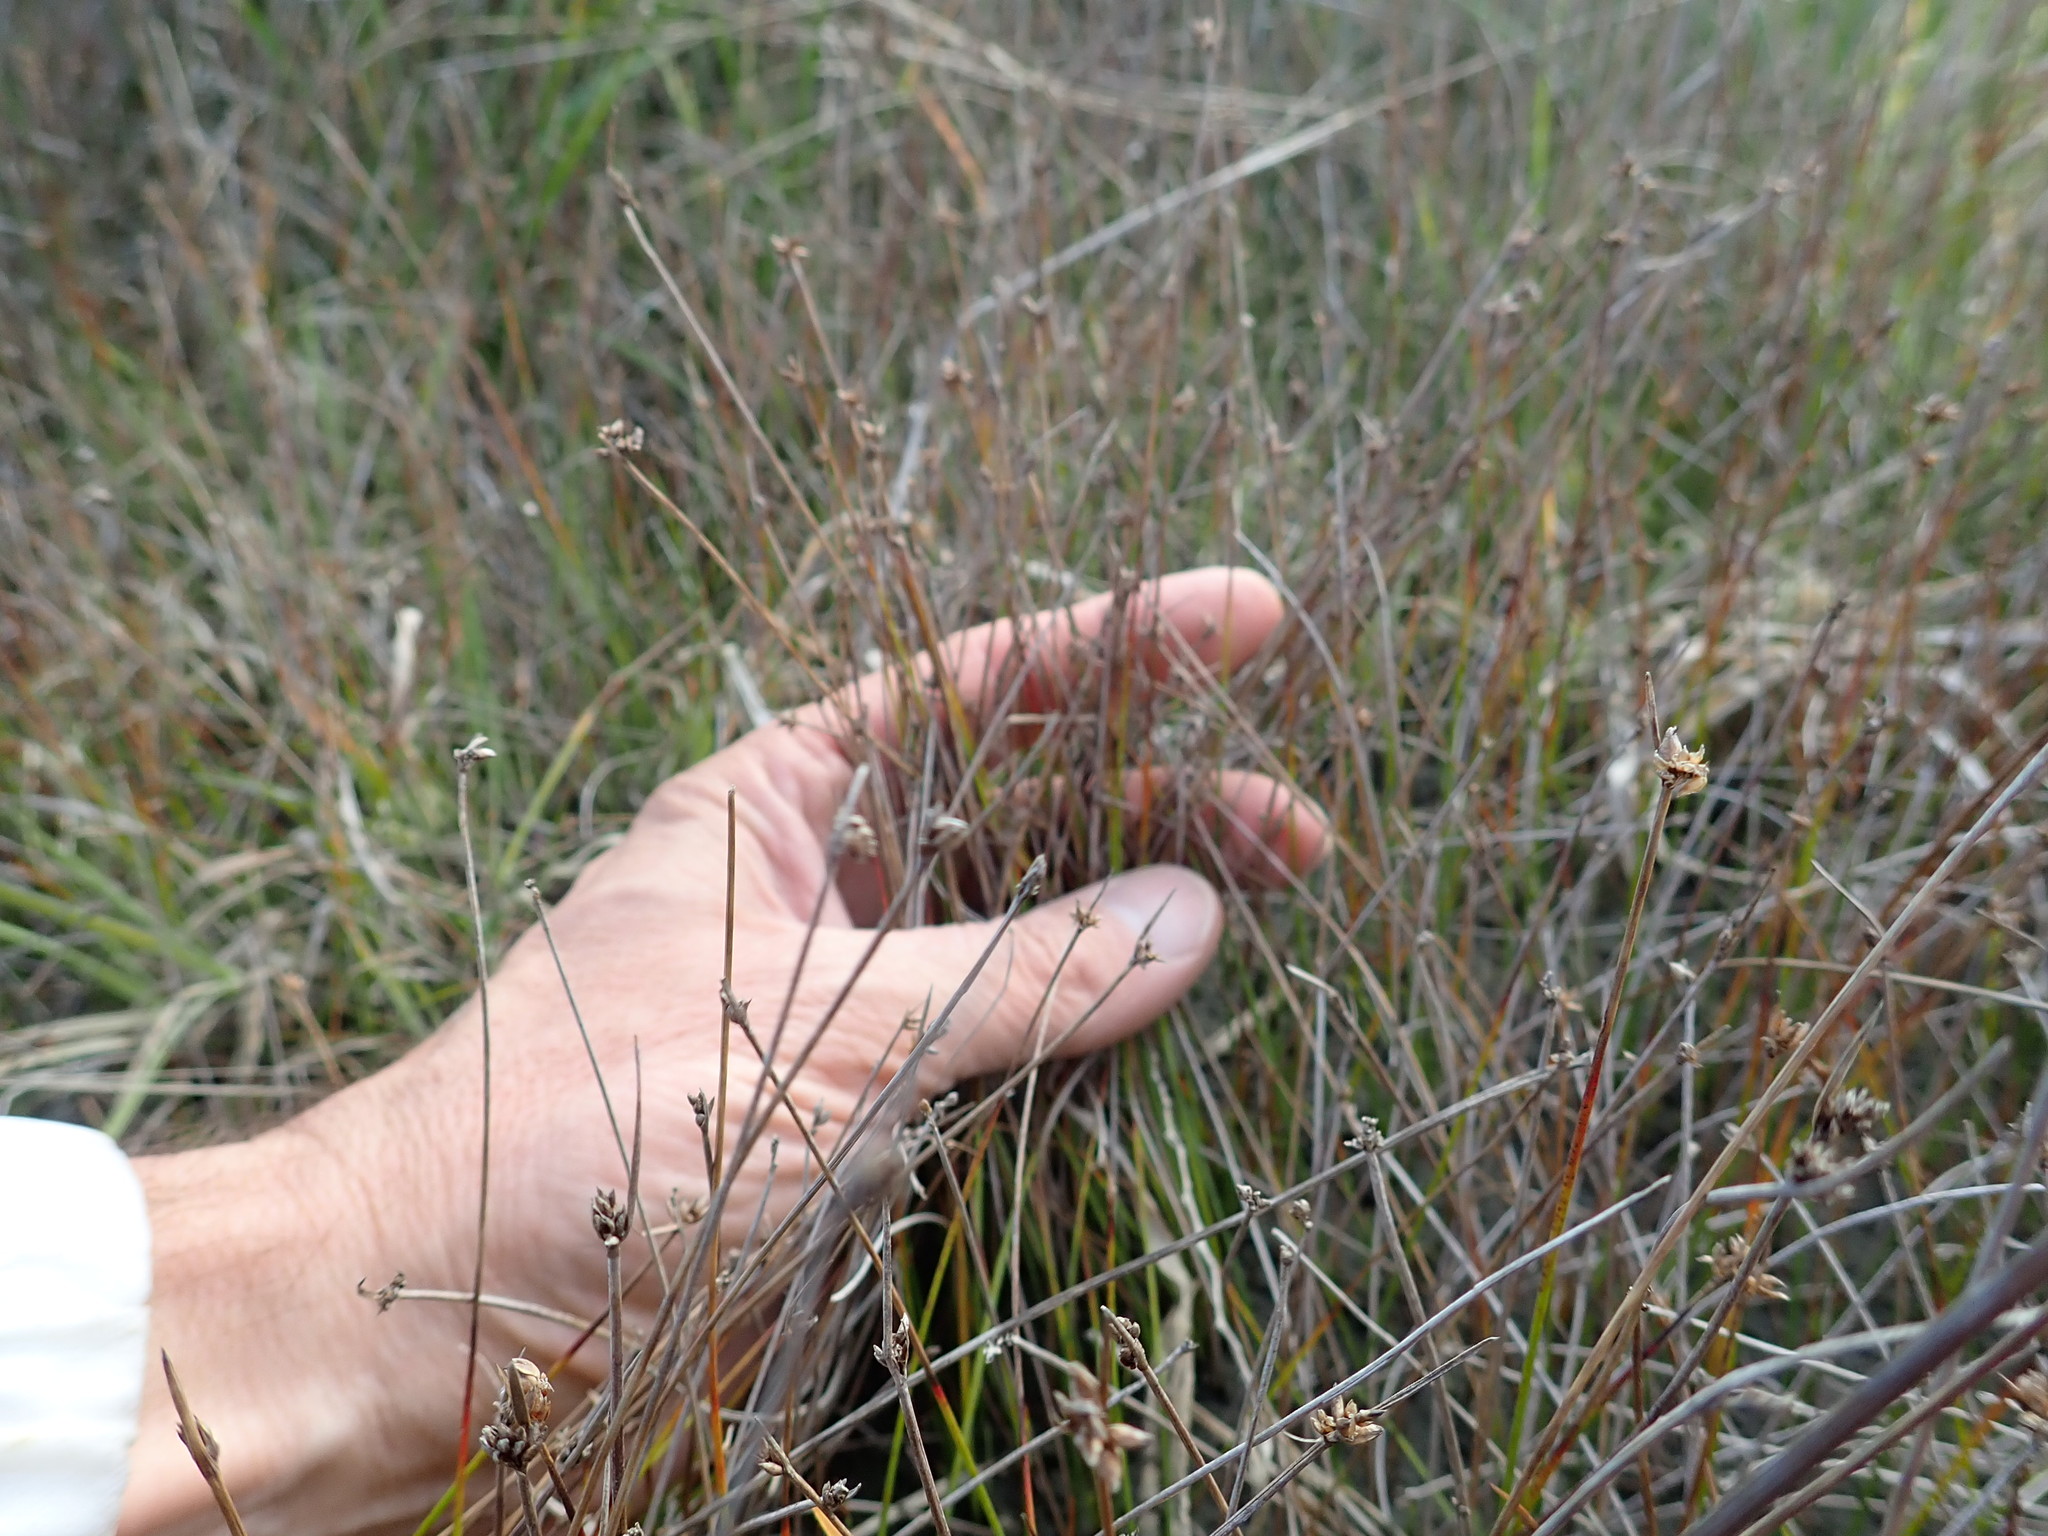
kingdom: Plantae
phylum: Tracheophyta
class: Liliopsida
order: Poales
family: Cyperaceae
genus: Schoenus
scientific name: Schoenus nitens
